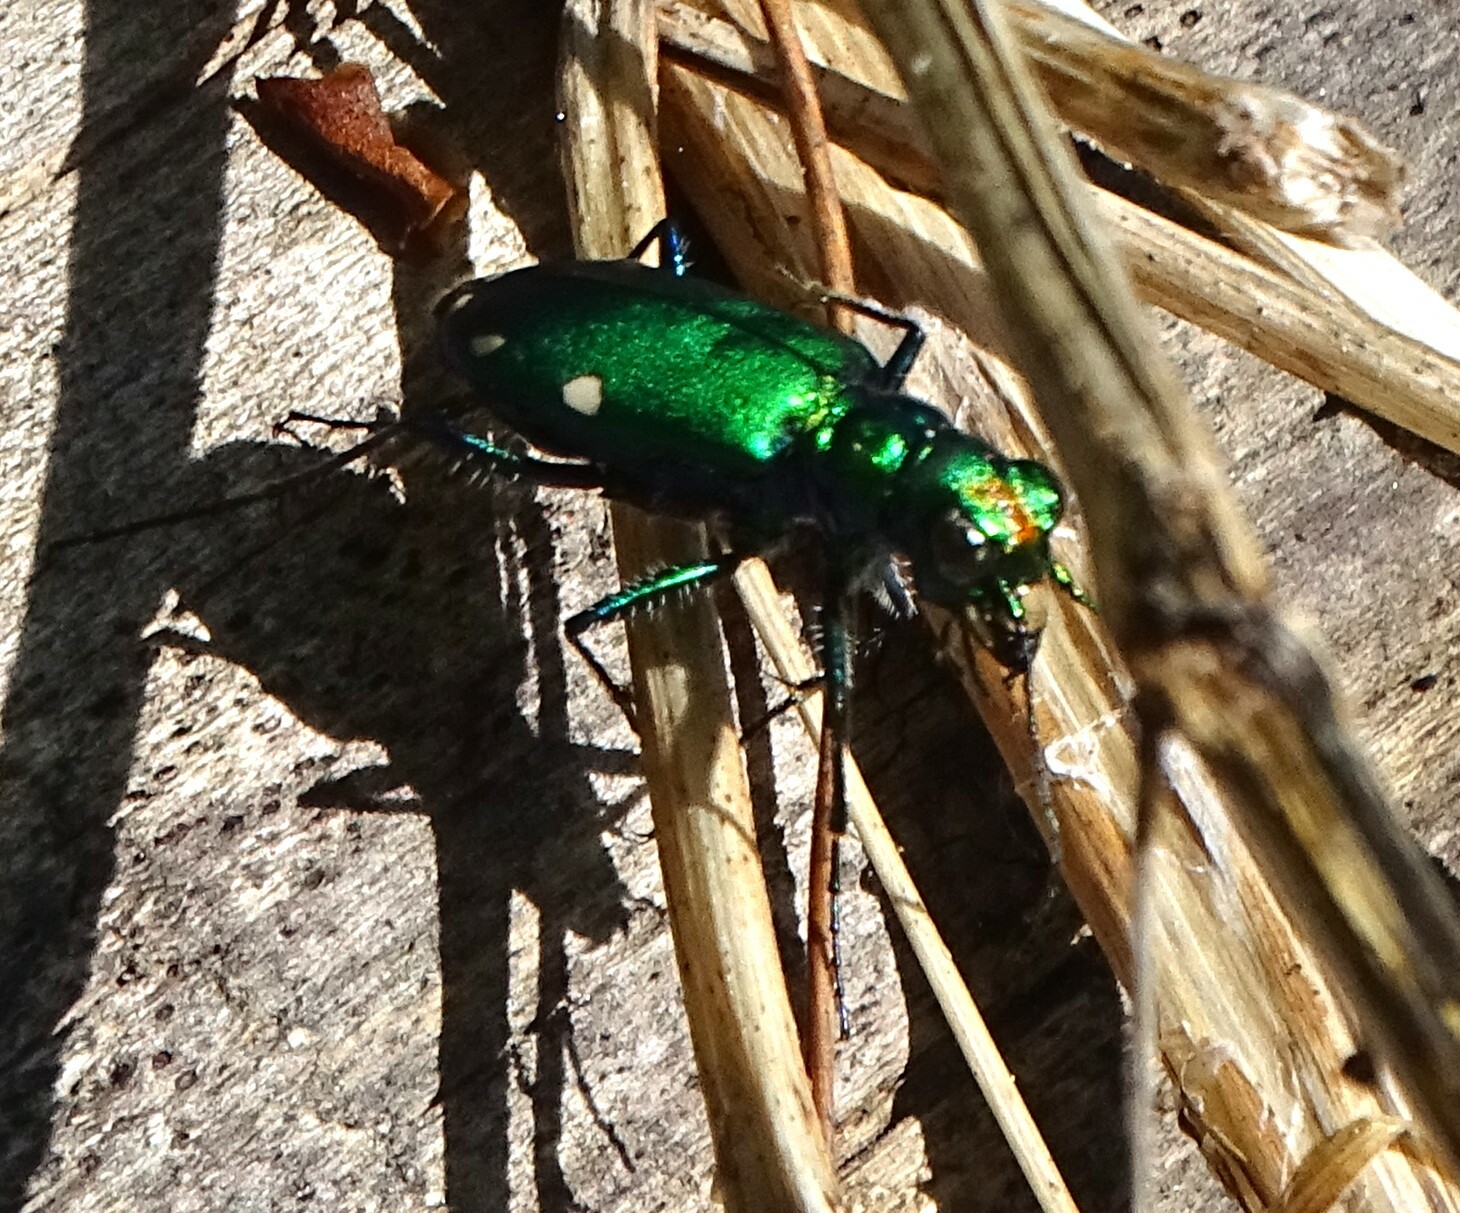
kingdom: Animalia
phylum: Arthropoda
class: Insecta
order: Coleoptera
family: Carabidae
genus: Cicindela
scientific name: Cicindela sexguttata
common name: Six-spotted tiger beetle
